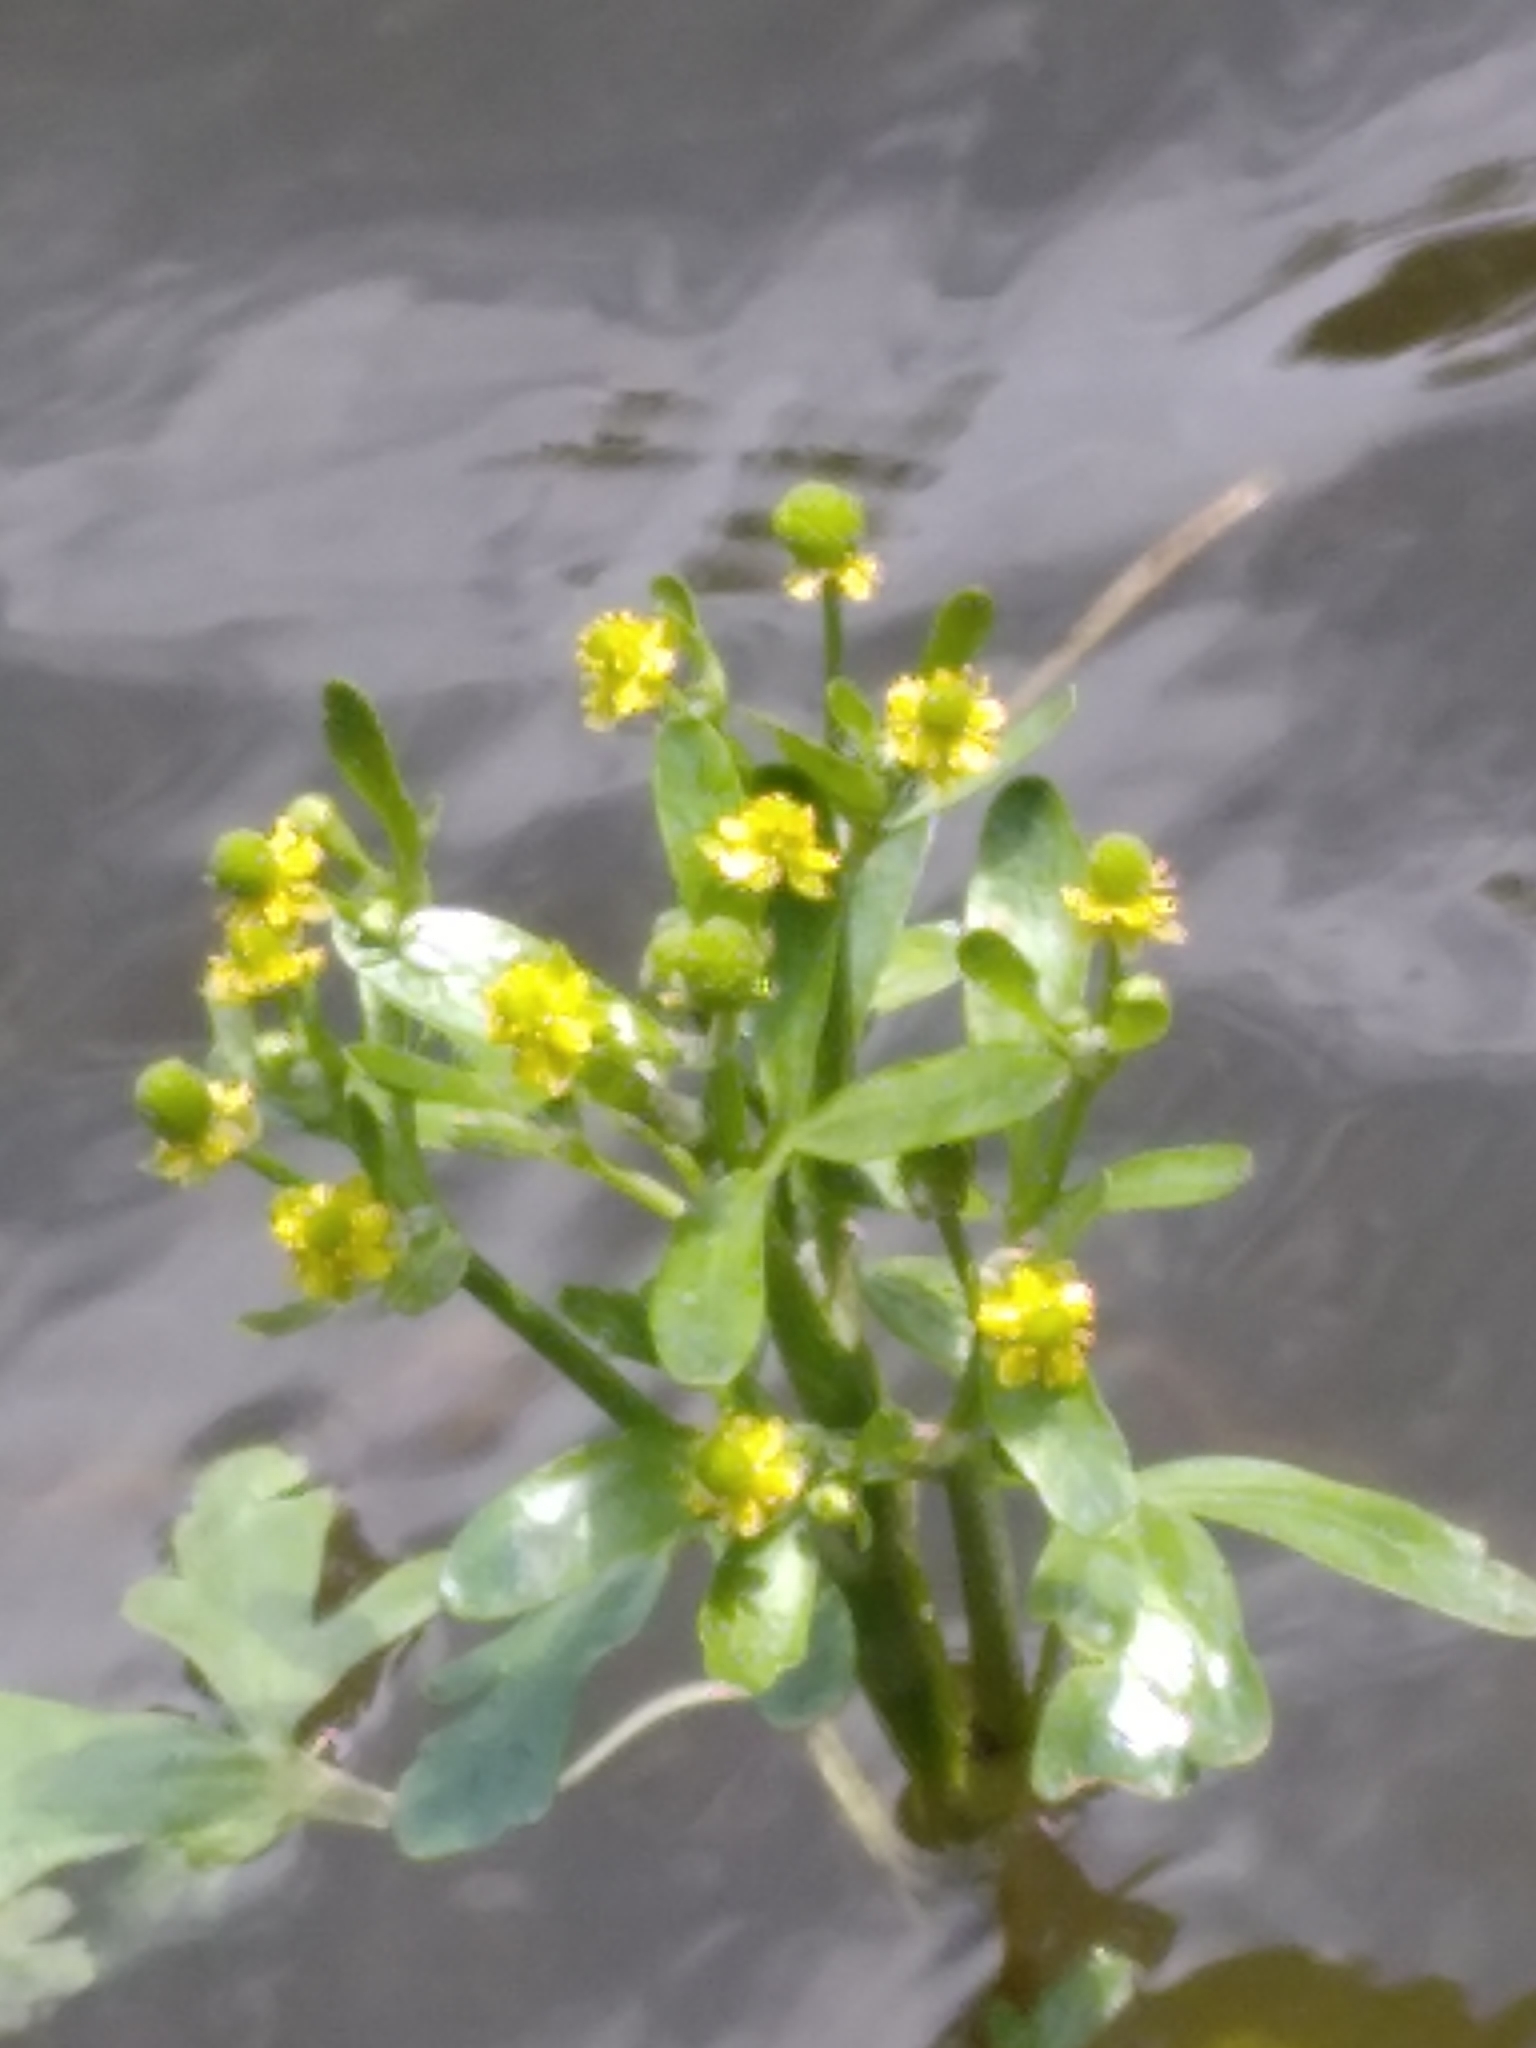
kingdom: Plantae
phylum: Tracheophyta
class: Magnoliopsida
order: Ranunculales
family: Ranunculaceae
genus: Ranunculus
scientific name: Ranunculus sceleratus
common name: Celery-leaved buttercup
